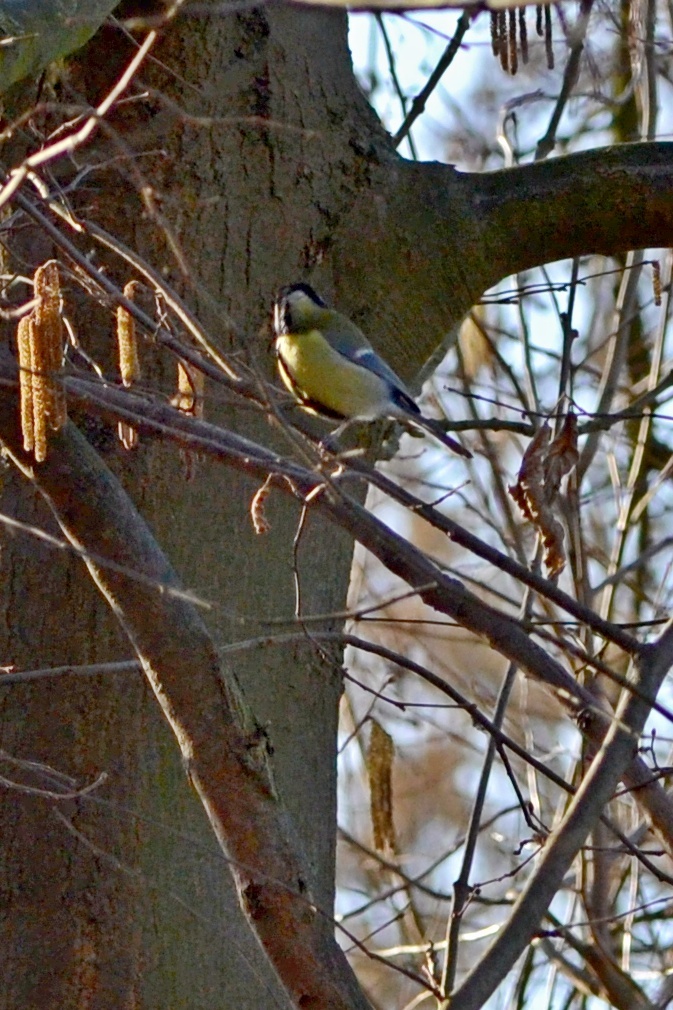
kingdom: Animalia
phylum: Chordata
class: Aves
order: Passeriformes
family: Paridae
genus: Parus
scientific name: Parus major
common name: Great tit
